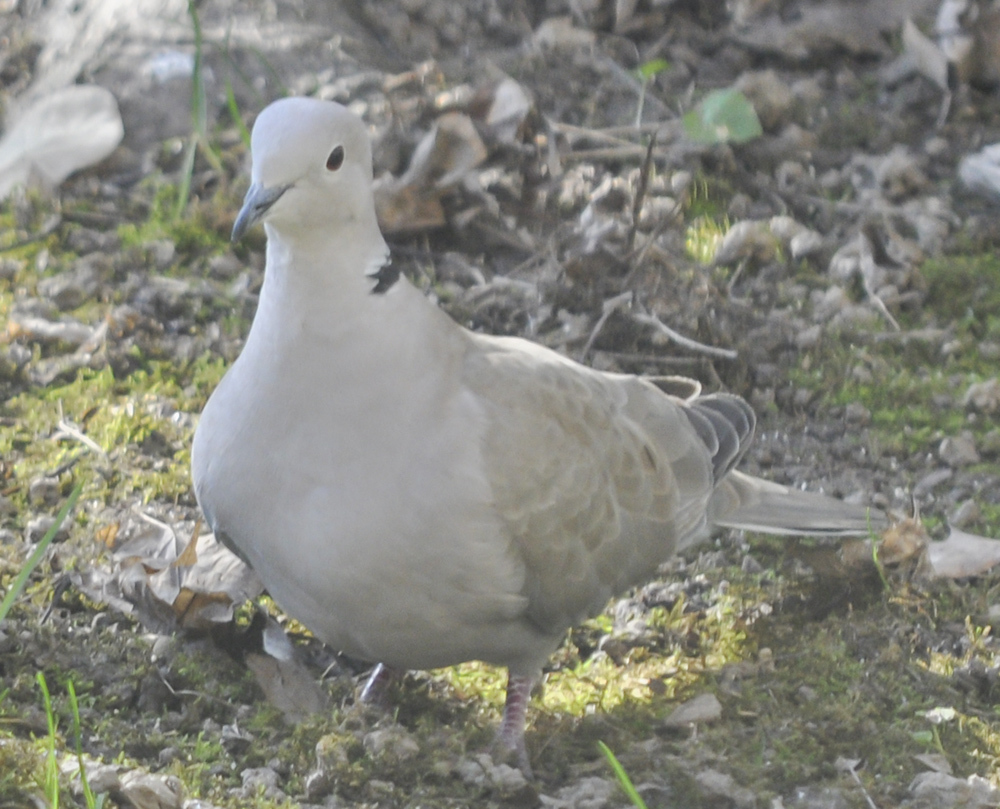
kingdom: Animalia
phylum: Chordata
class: Aves
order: Columbiformes
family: Columbidae
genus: Streptopelia
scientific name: Streptopelia decaocto
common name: Eurasian collared dove
